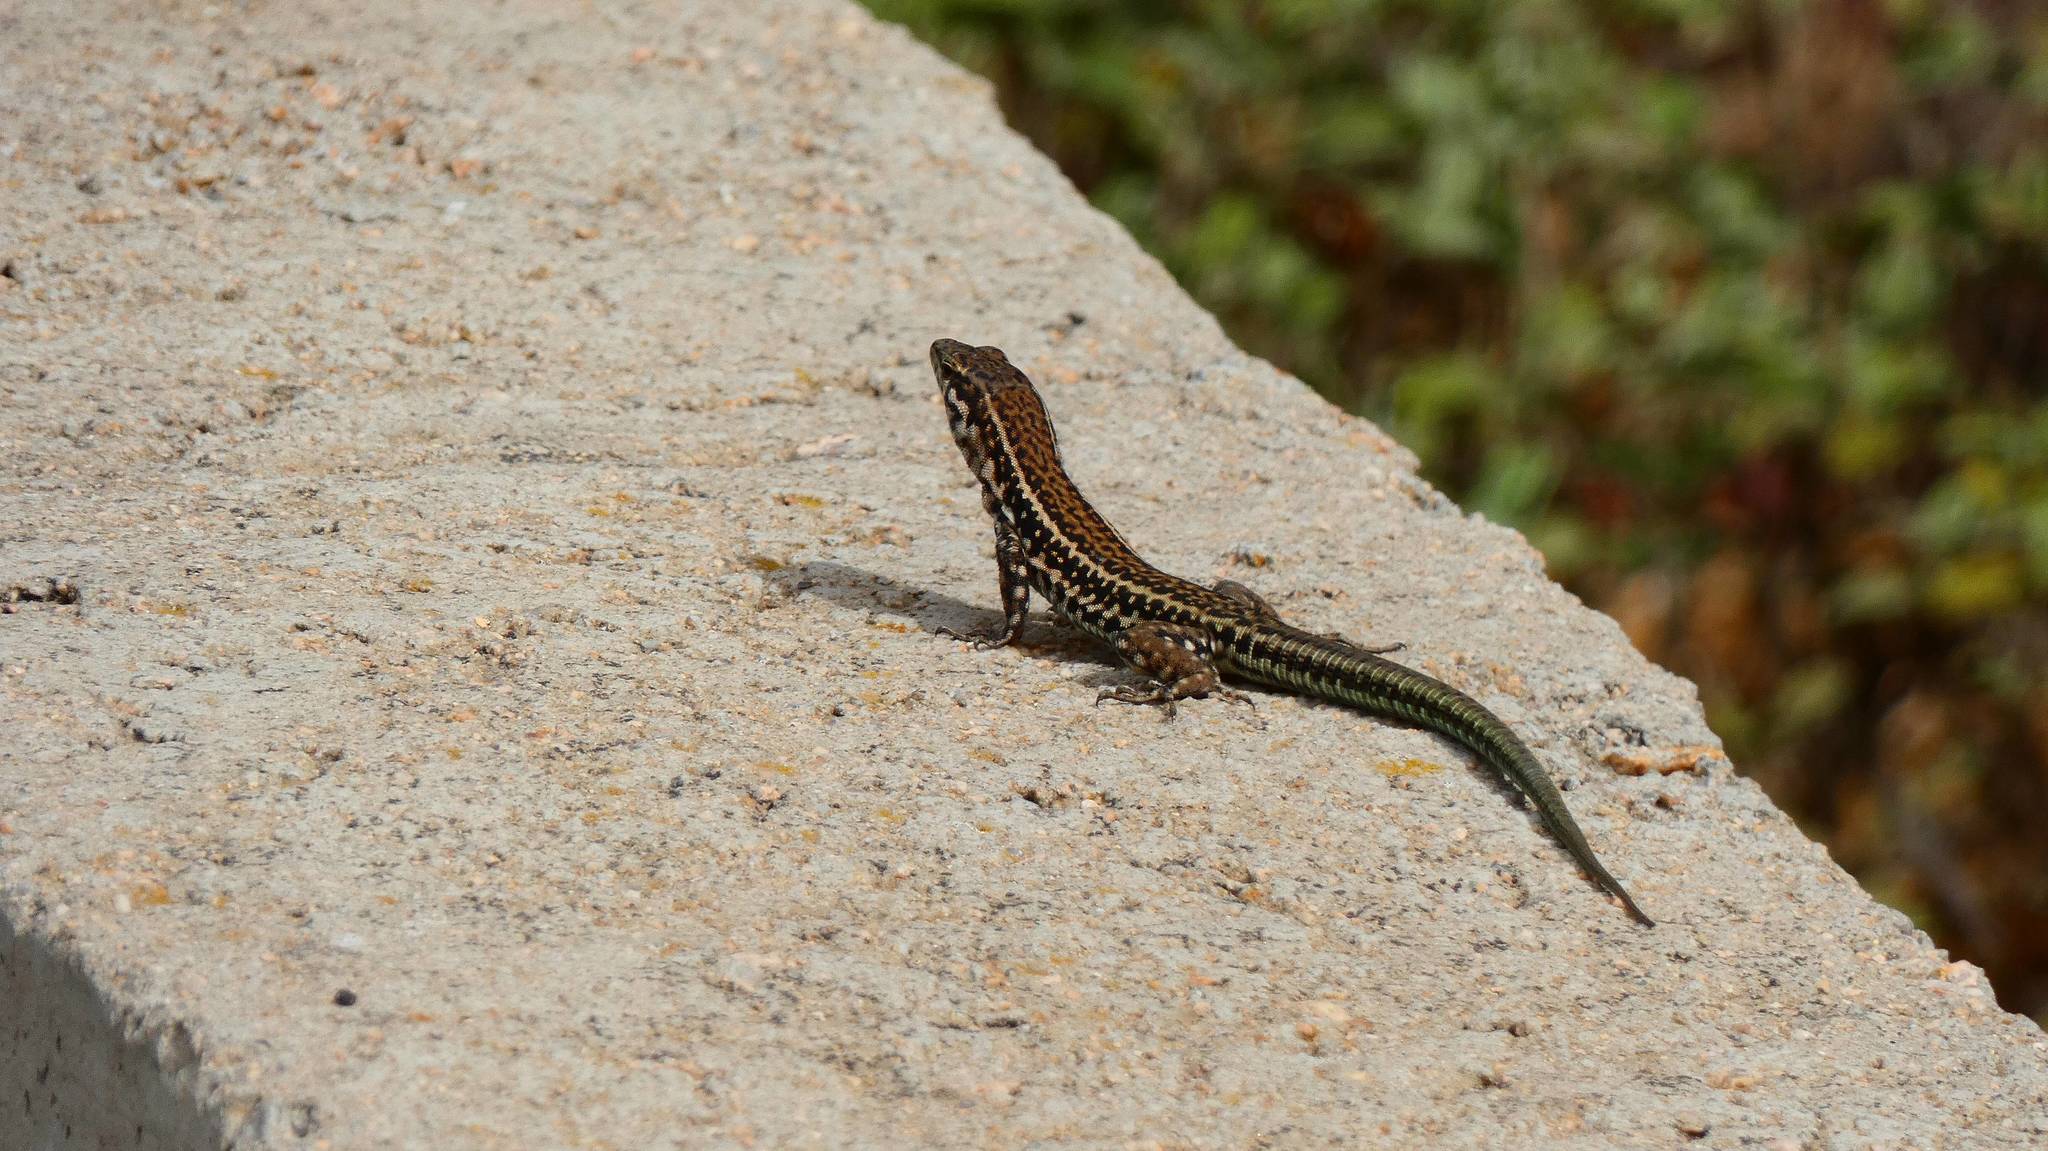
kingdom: Animalia
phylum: Chordata
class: Squamata
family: Lacertidae
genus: Podarcis
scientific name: Podarcis tiliguerta
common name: Tyrrhenian wall lizard
